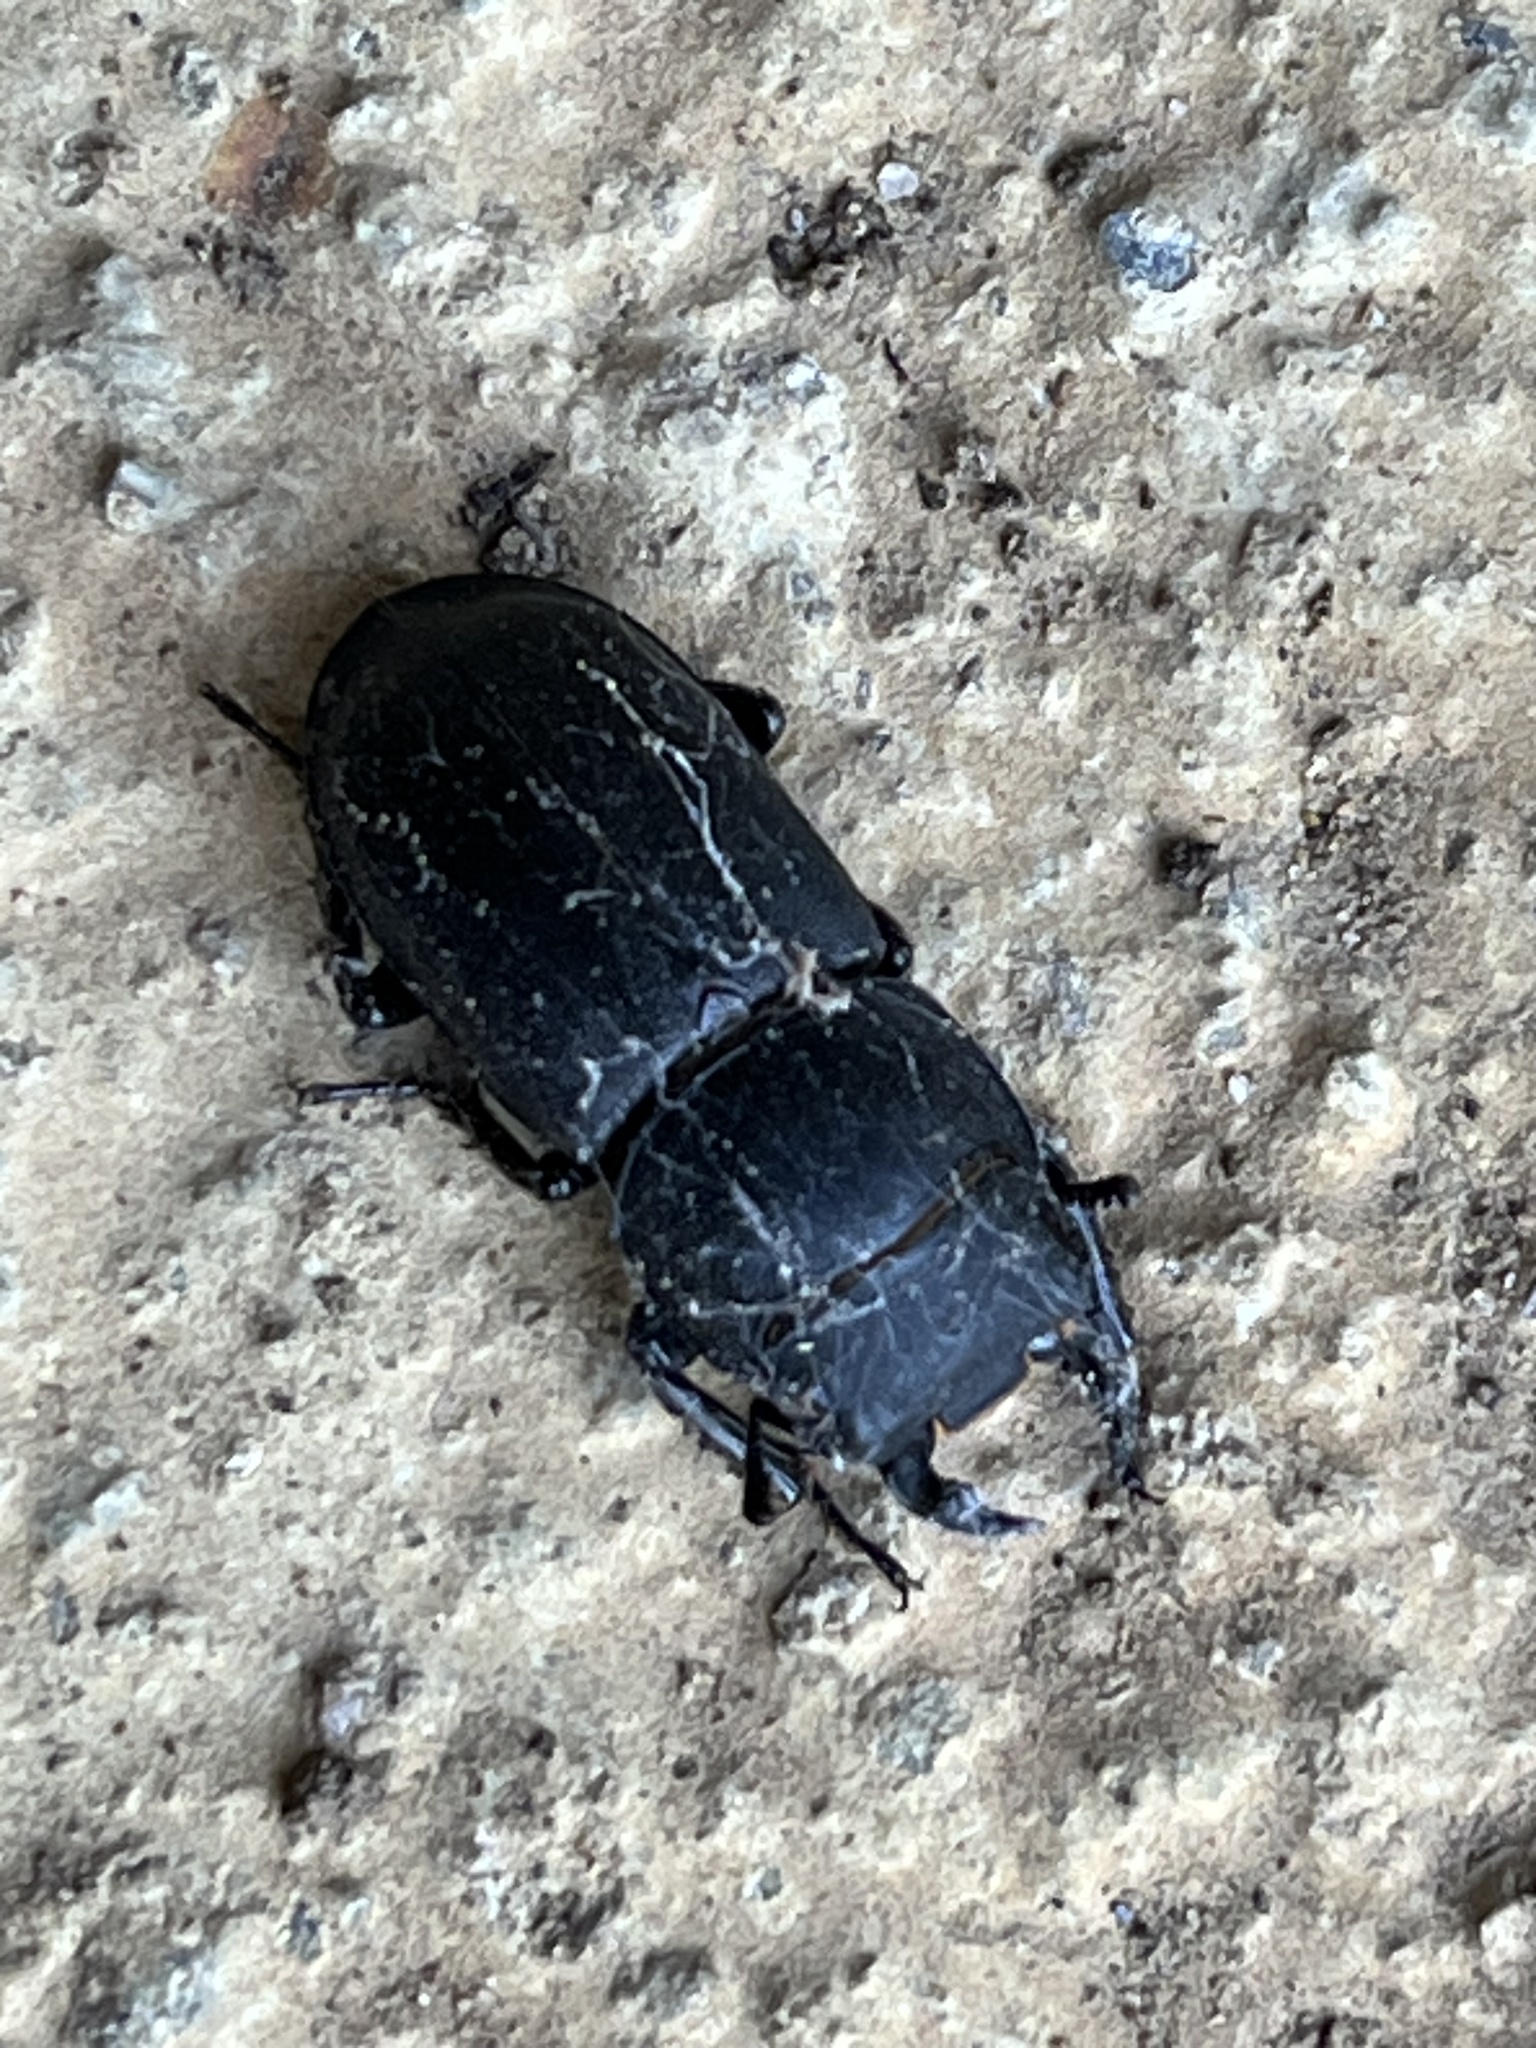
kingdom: Animalia
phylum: Arthropoda
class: Insecta
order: Coleoptera
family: Lucanidae
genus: Dorcus
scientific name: Dorcus parallelipipedus
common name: Lesser stag beetle
